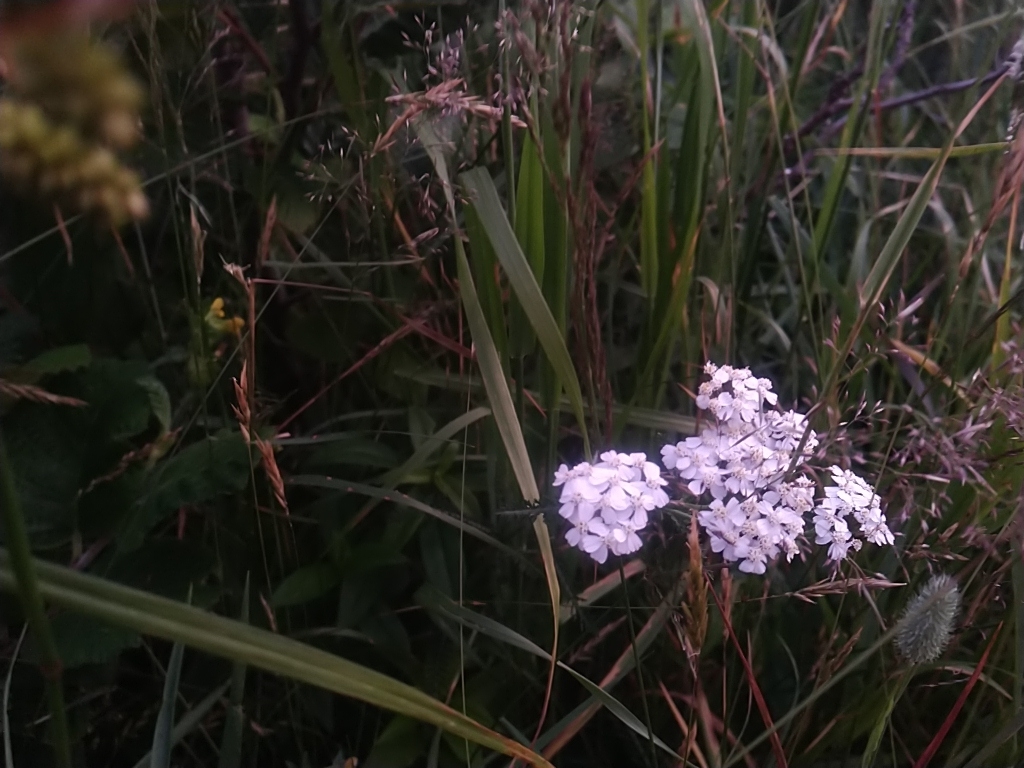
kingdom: Plantae
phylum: Tracheophyta
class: Magnoliopsida
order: Asterales
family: Asteraceae
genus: Achillea
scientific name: Achillea millefolium
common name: Yarrow
